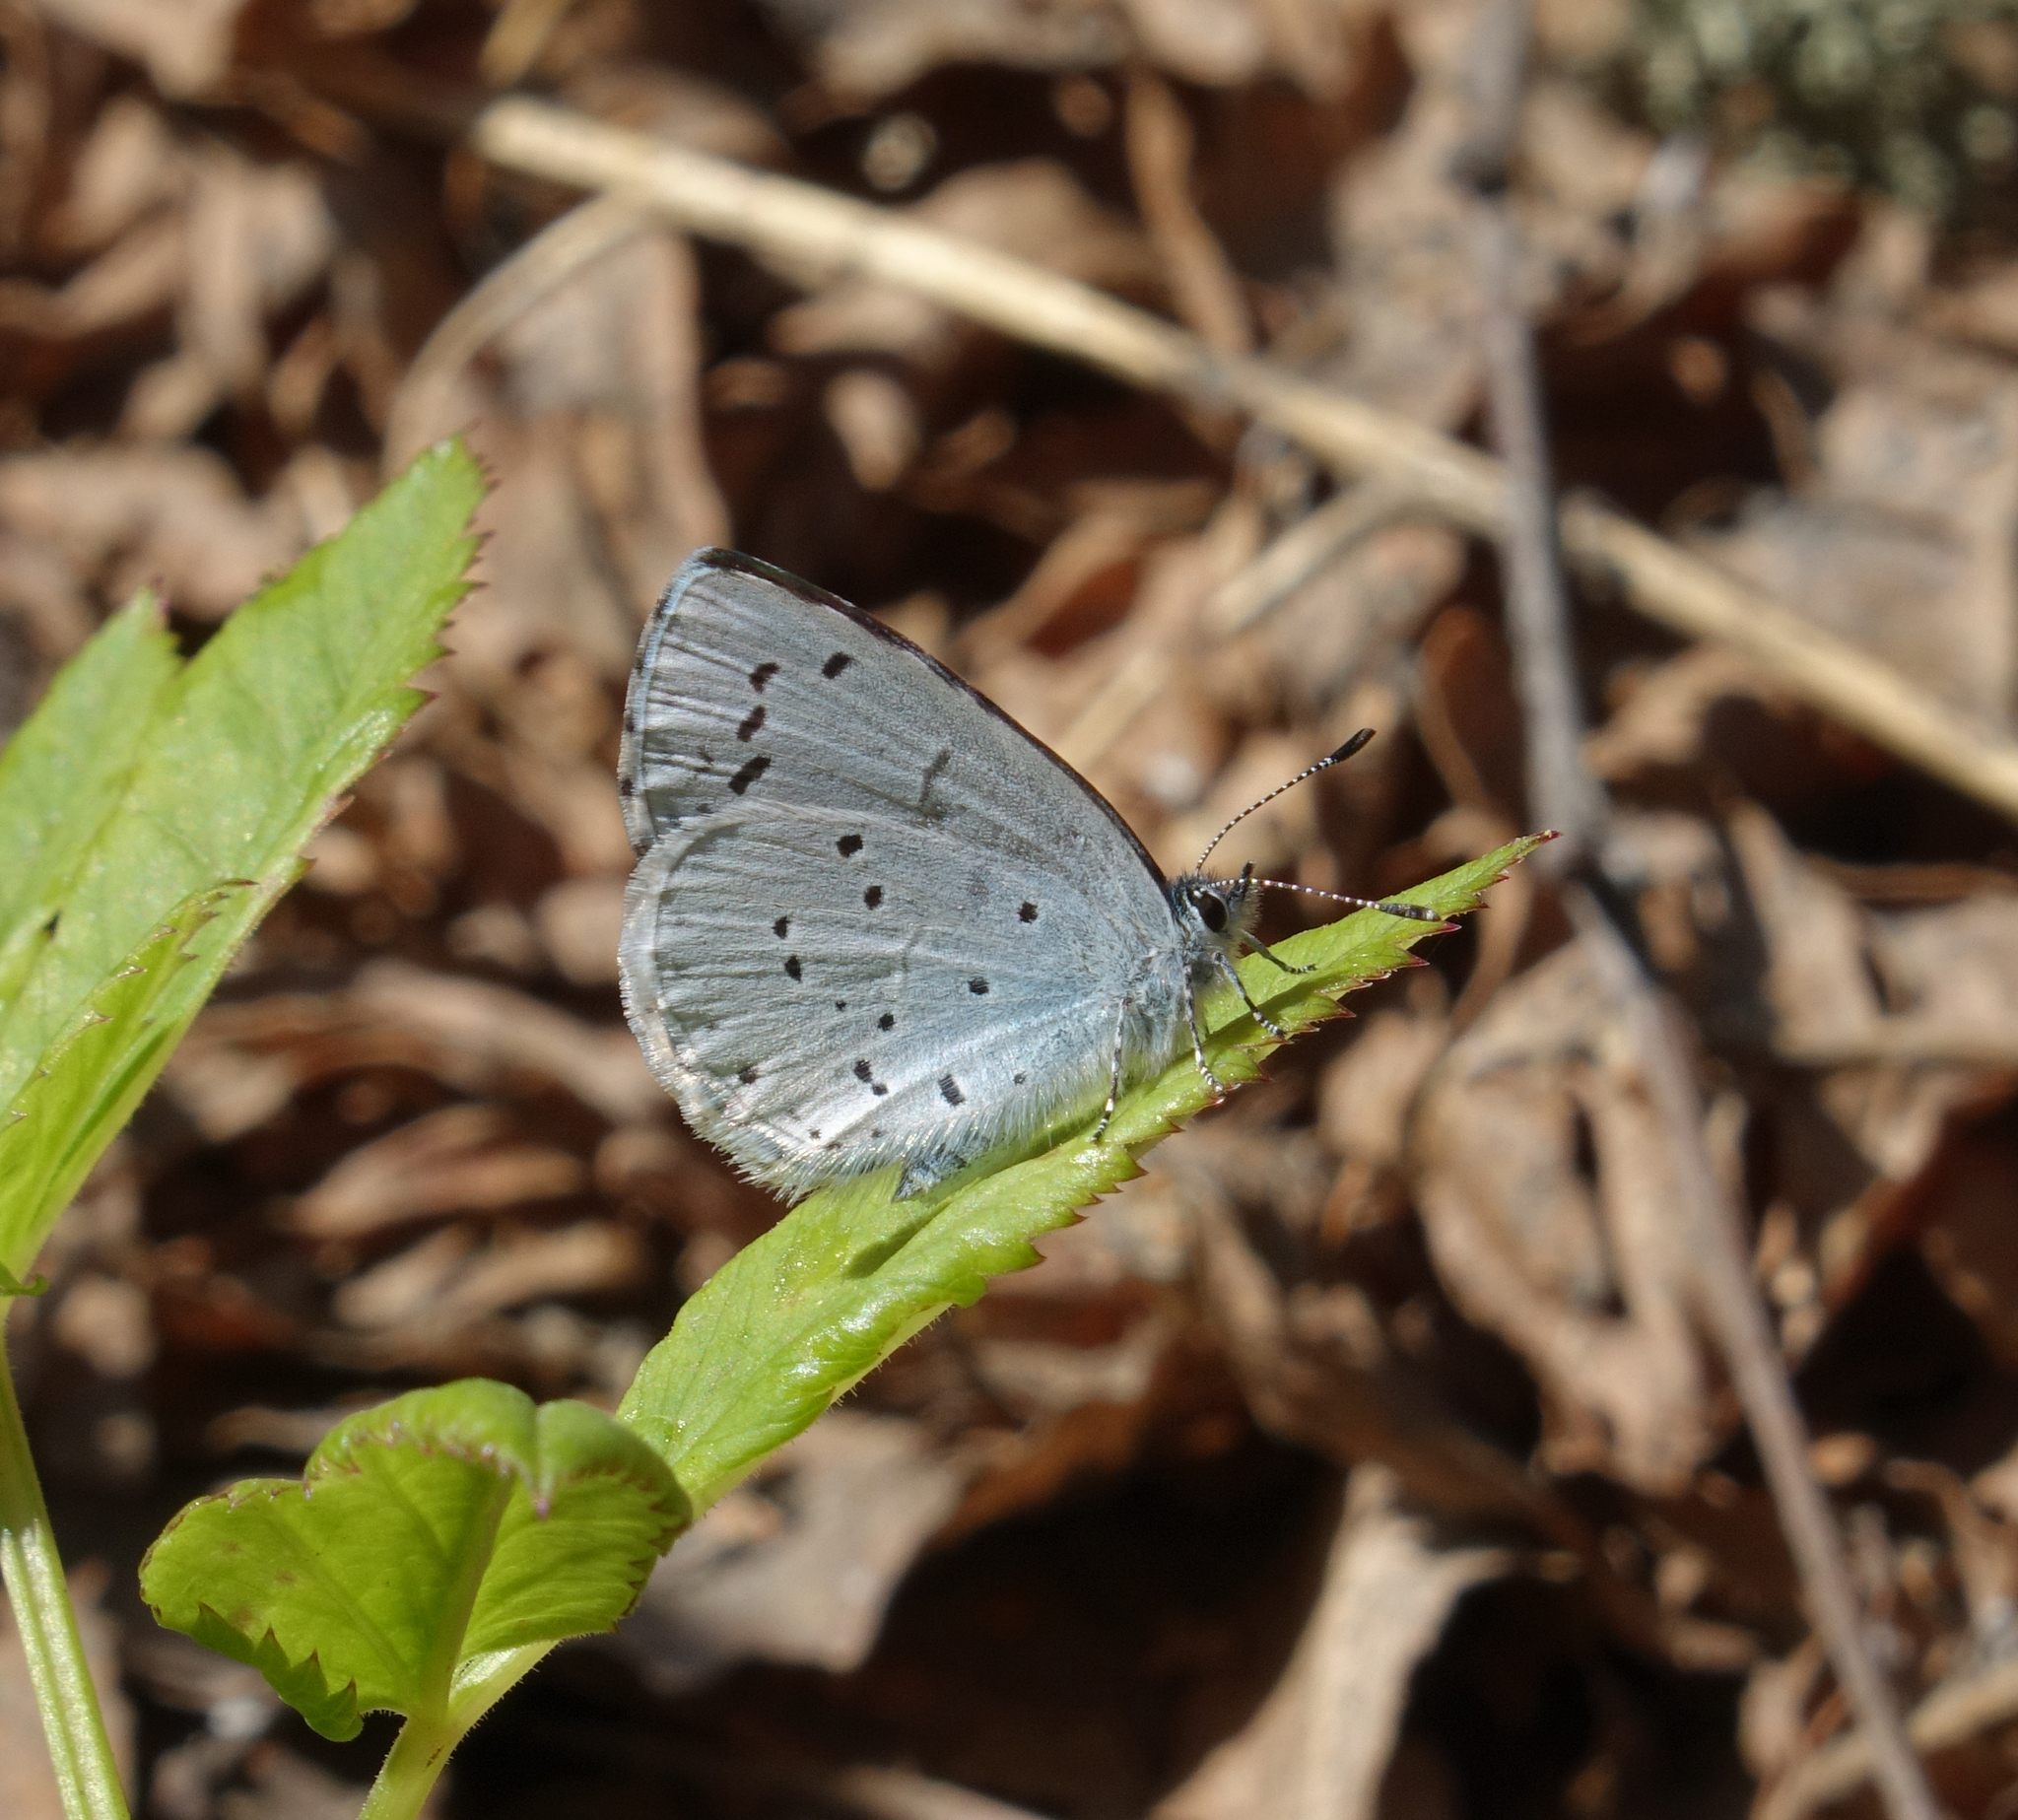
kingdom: Animalia
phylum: Arthropoda
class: Insecta
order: Lepidoptera
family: Lycaenidae
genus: Celastrina
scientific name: Celastrina argiolus
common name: Holly blue
